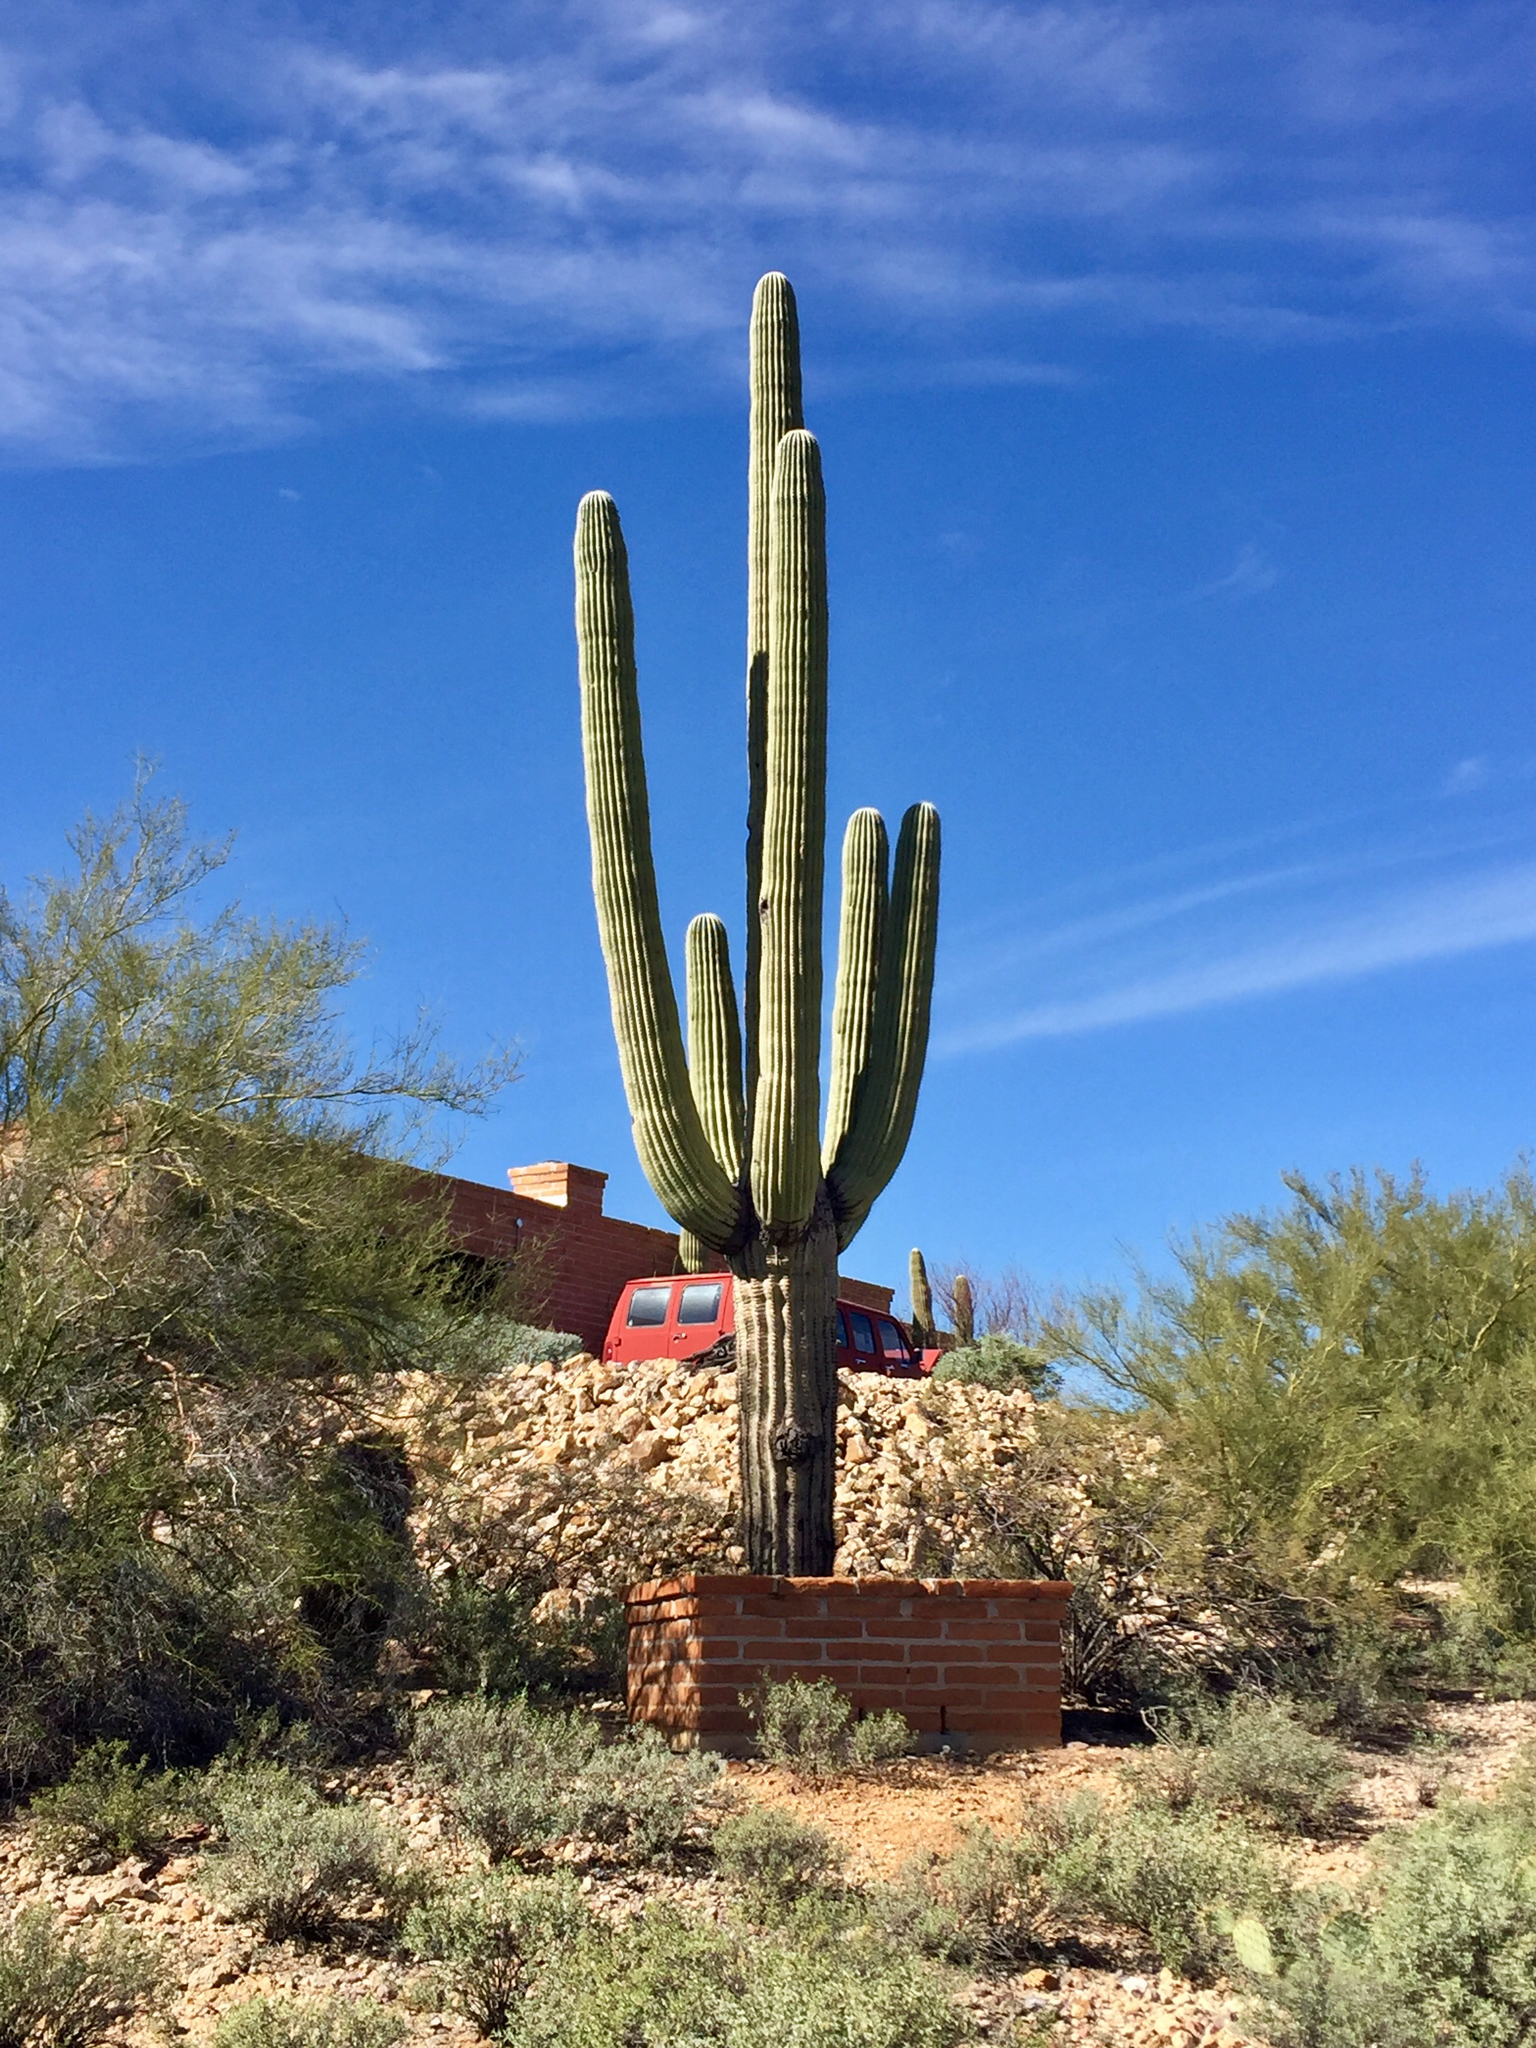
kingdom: Plantae
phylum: Tracheophyta
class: Magnoliopsida
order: Caryophyllales
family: Cactaceae
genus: Carnegiea
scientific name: Carnegiea gigantea
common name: Saguaro
